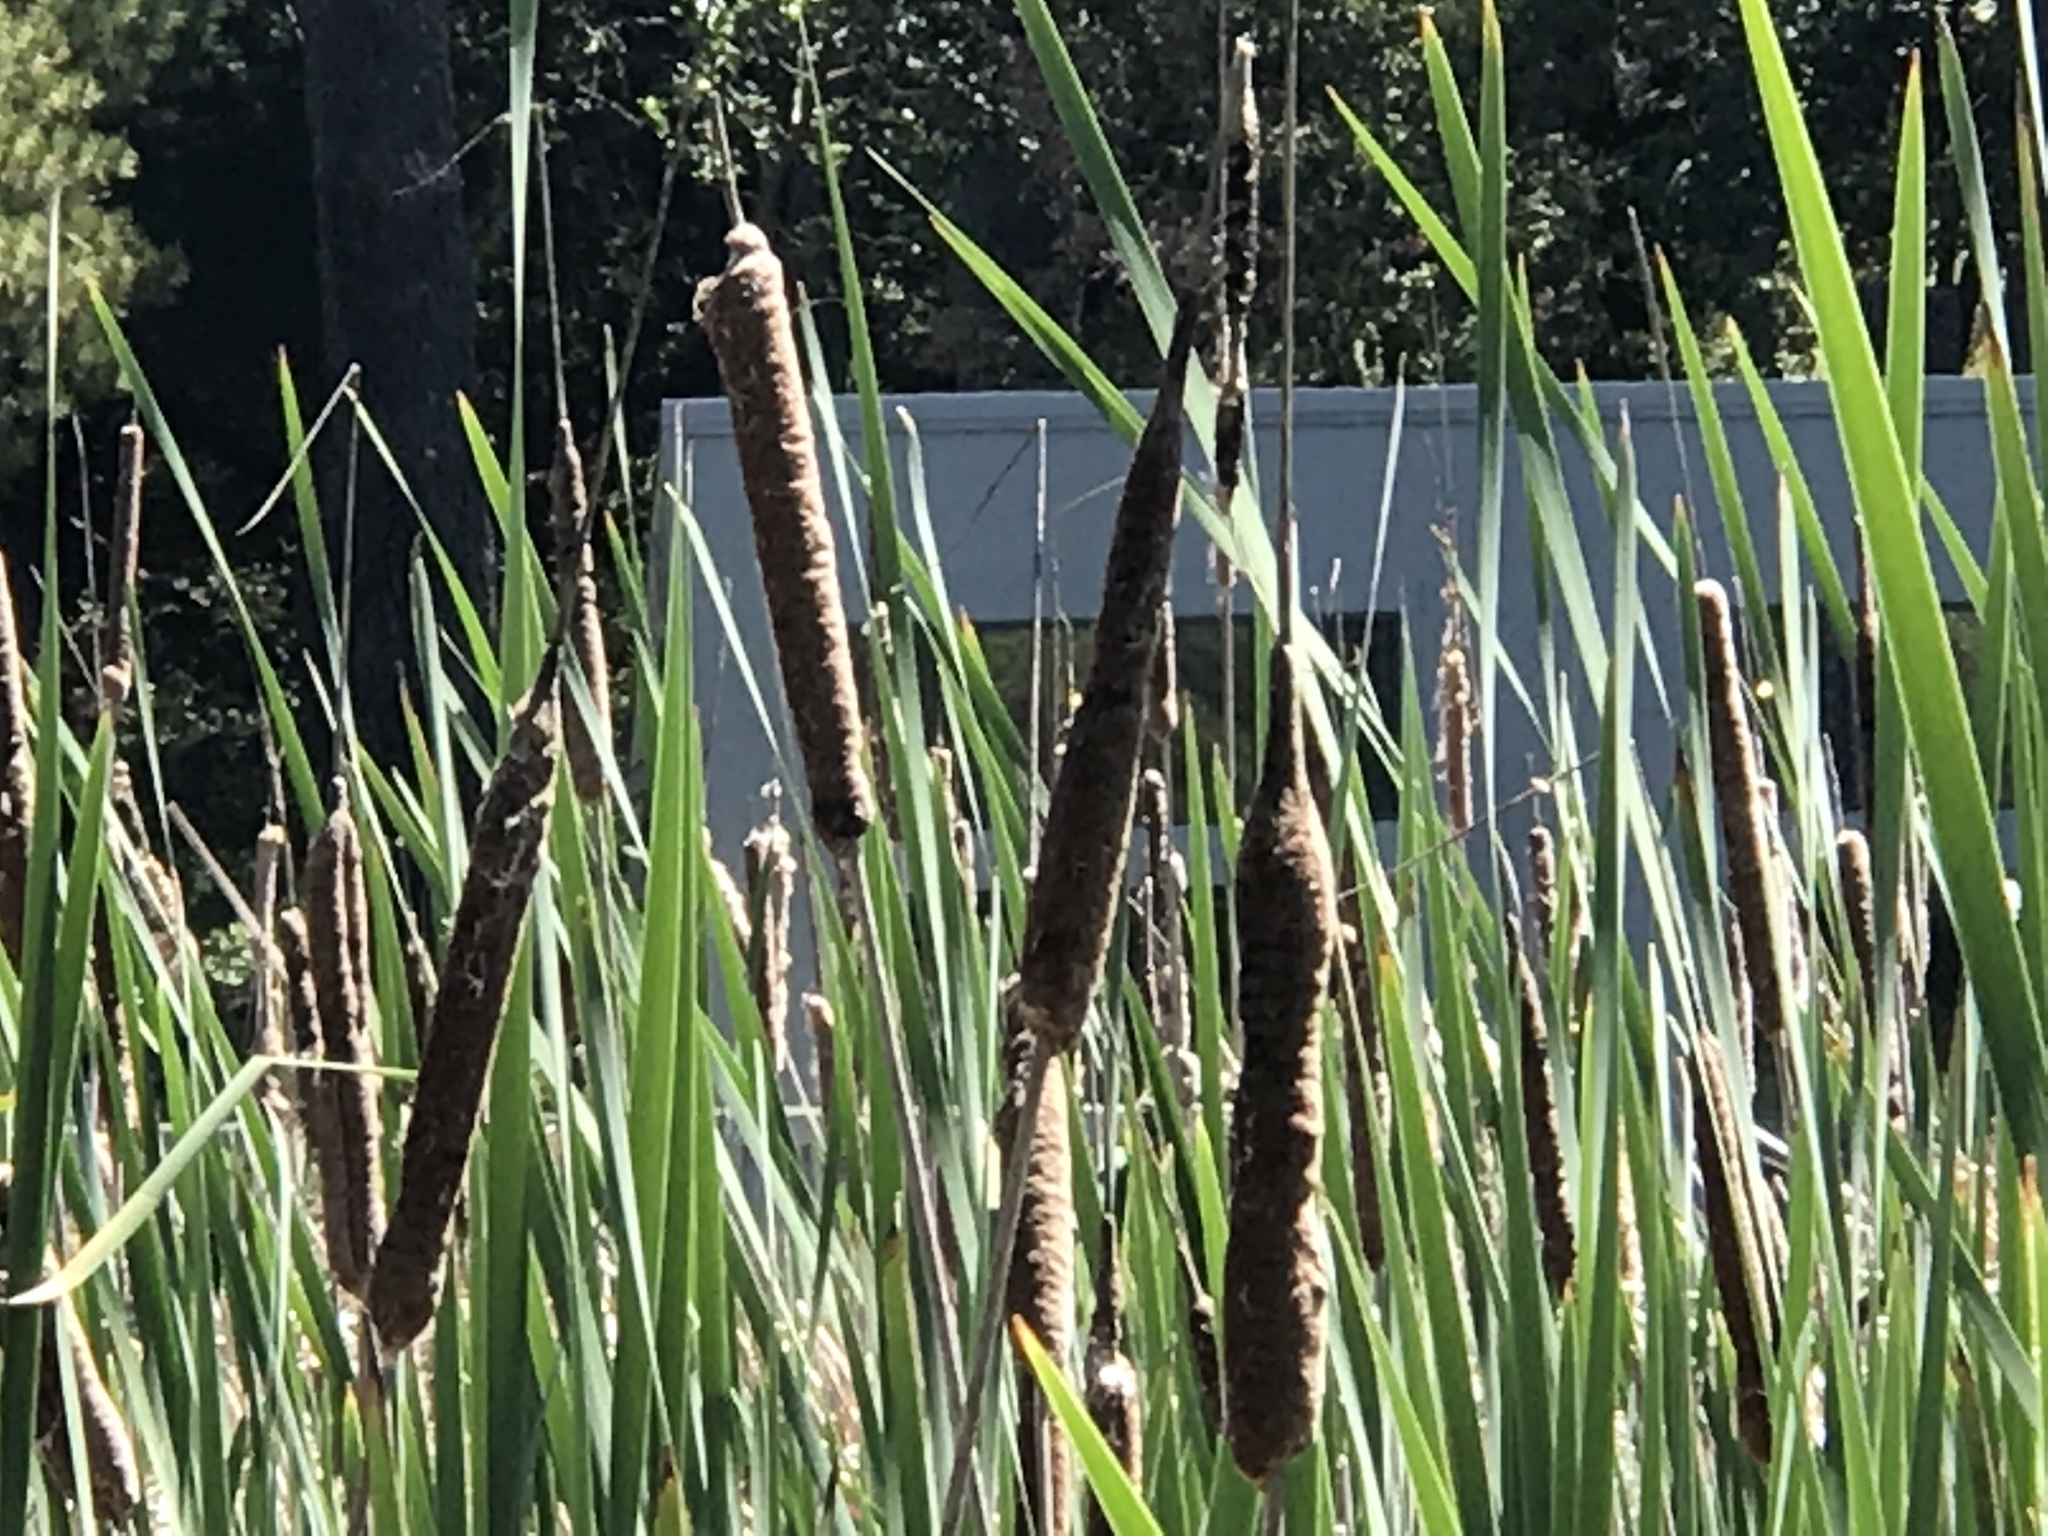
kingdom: Plantae
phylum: Tracheophyta
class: Liliopsida
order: Poales
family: Typhaceae
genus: Typha
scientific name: Typha angustifolia
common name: Lesser bulrush
